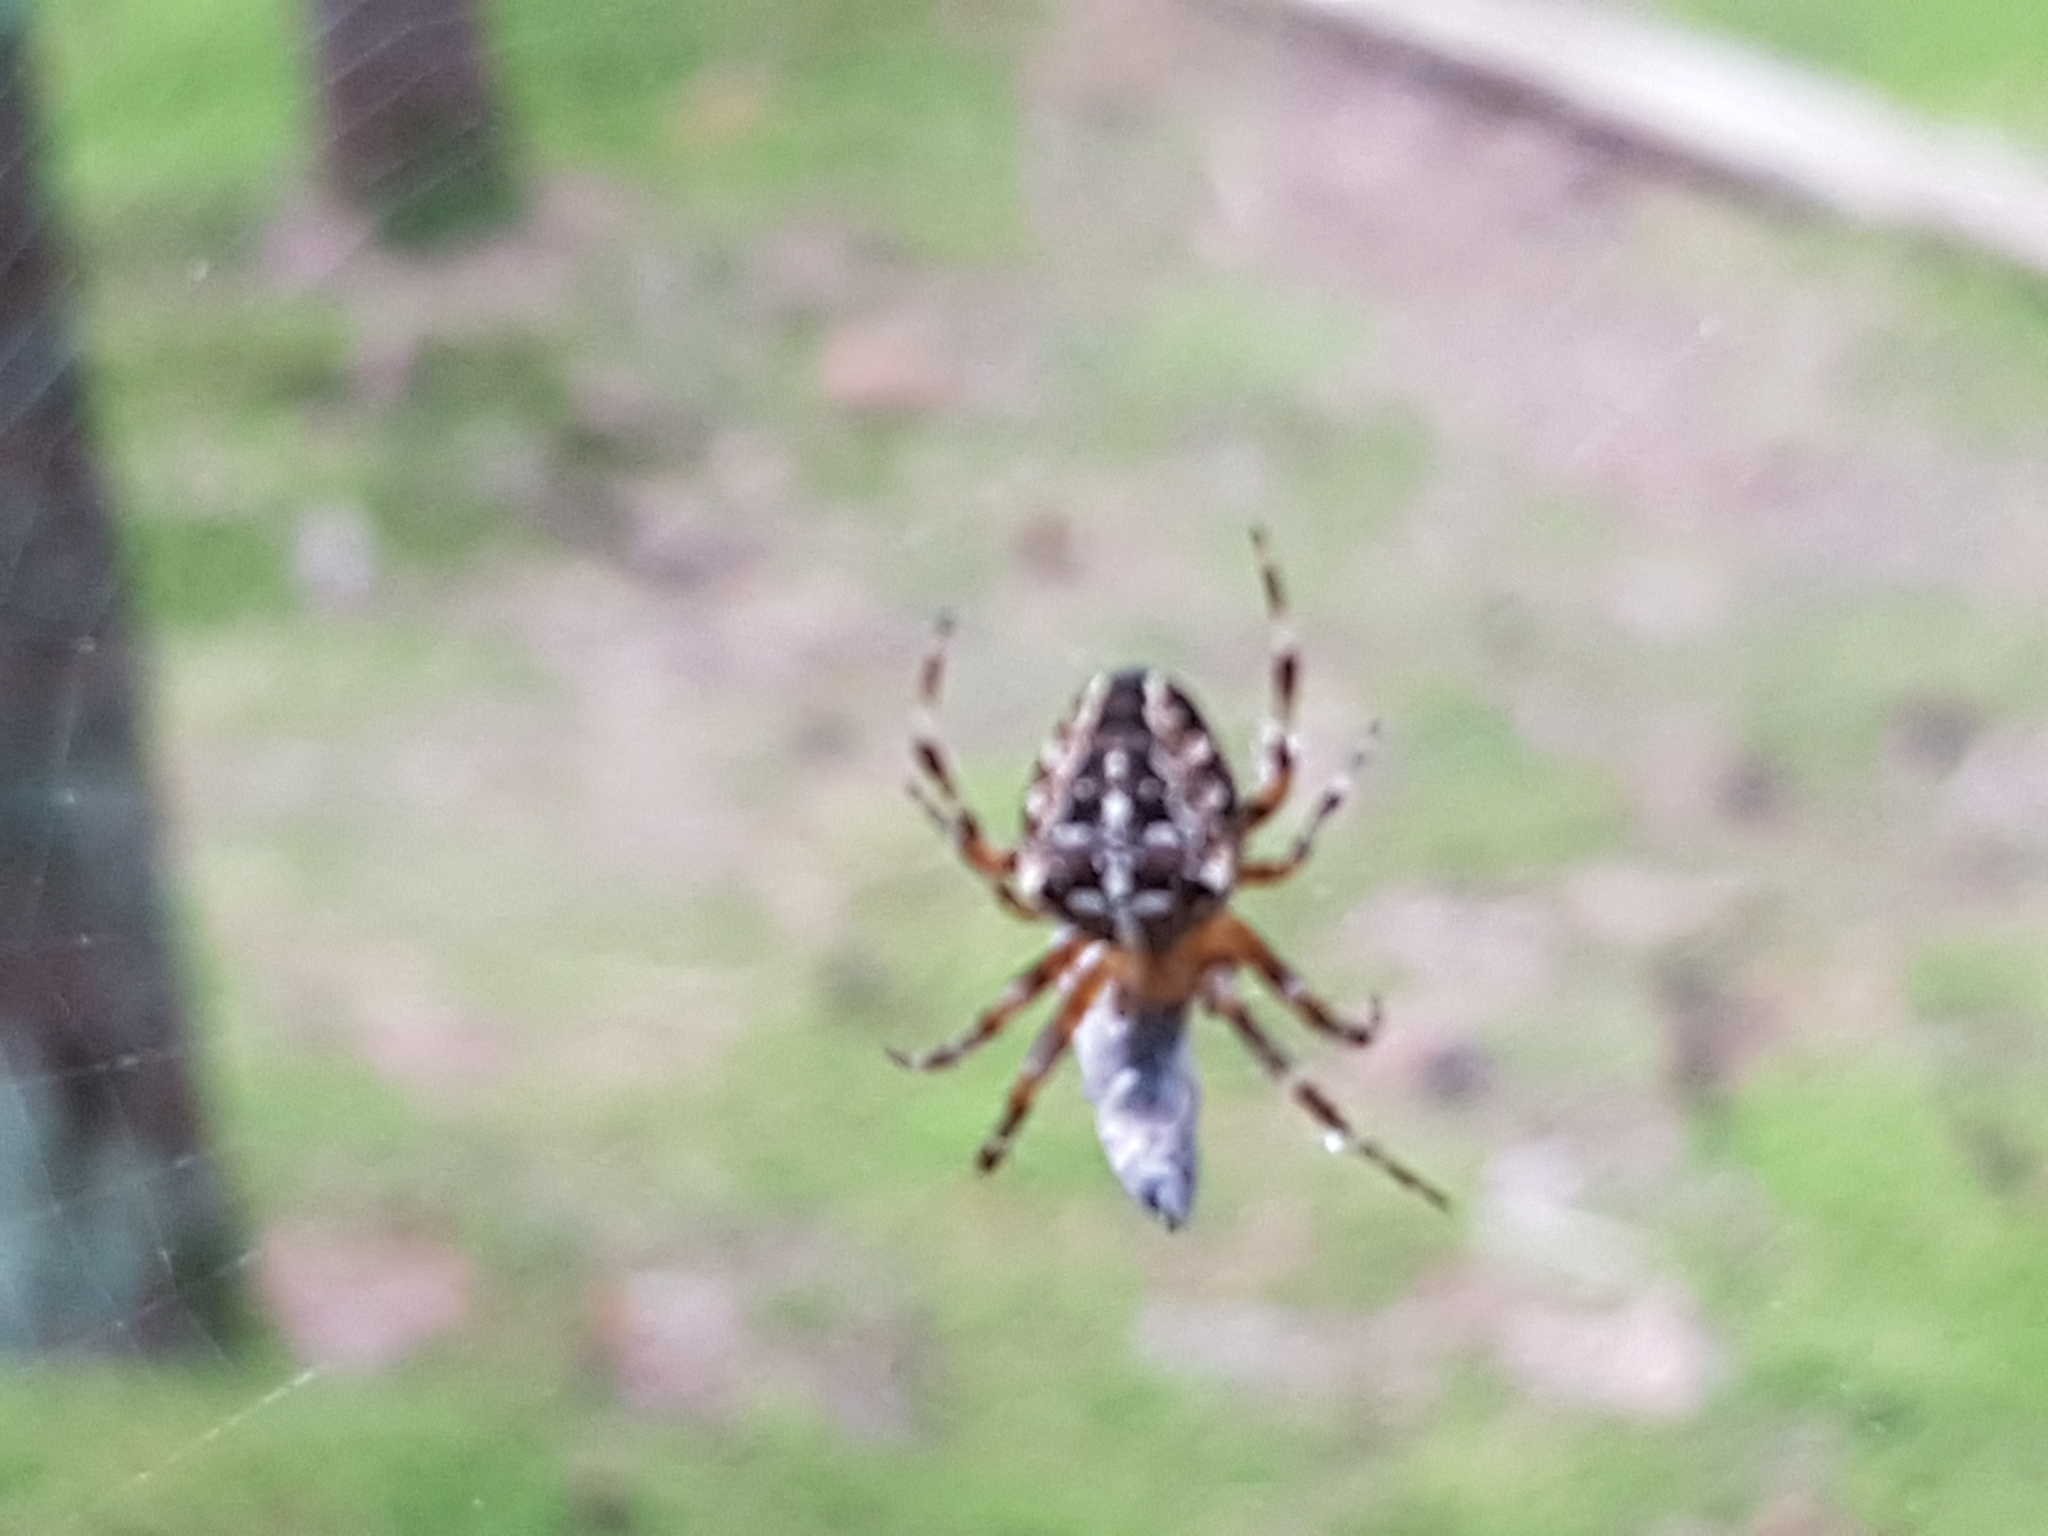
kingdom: Animalia
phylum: Arthropoda
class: Arachnida
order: Araneae
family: Araneidae
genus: Araneus
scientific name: Araneus diadematus
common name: Cross orbweaver
